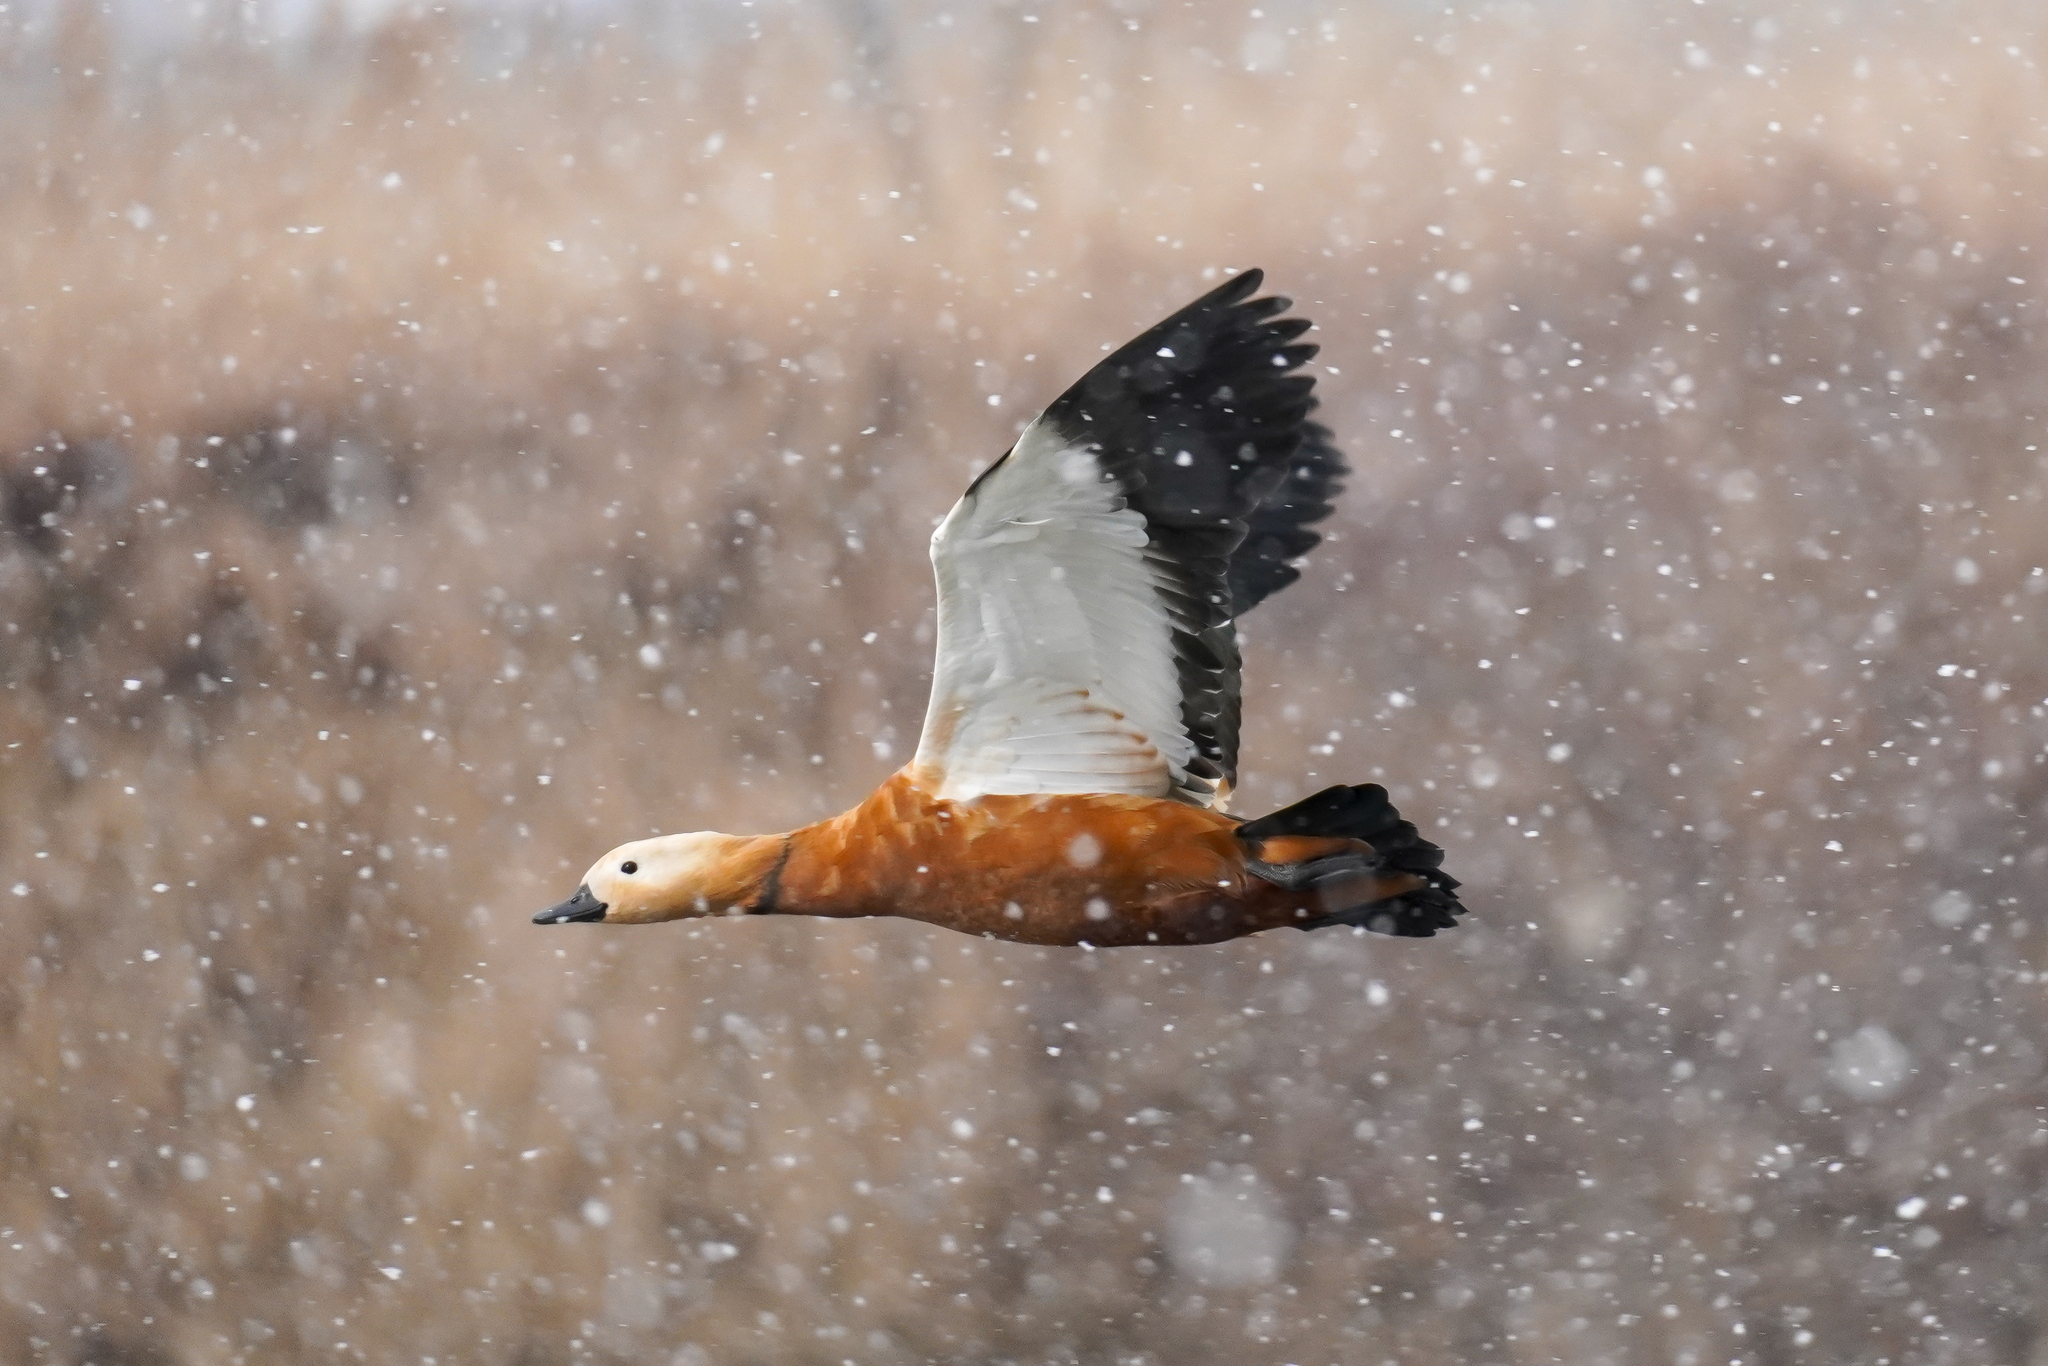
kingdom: Animalia
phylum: Chordata
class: Aves
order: Anseriformes
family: Anatidae
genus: Tadorna
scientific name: Tadorna ferruginea
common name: Ruddy shelduck
